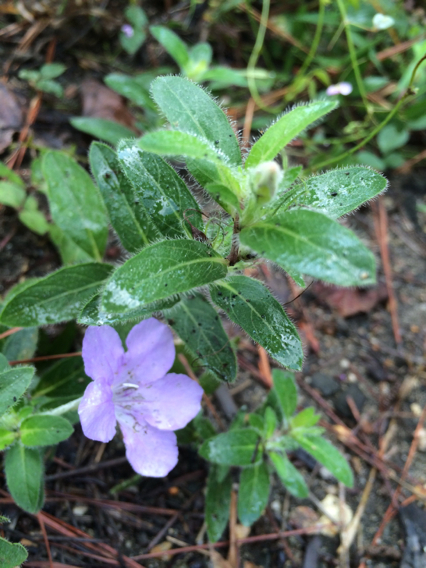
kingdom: Plantae
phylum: Tracheophyta
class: Magnoliopsida
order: Lamiales
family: Acanthaceae
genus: Ruellia
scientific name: Ruellia humilis
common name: Fringe-leaf ruellia
